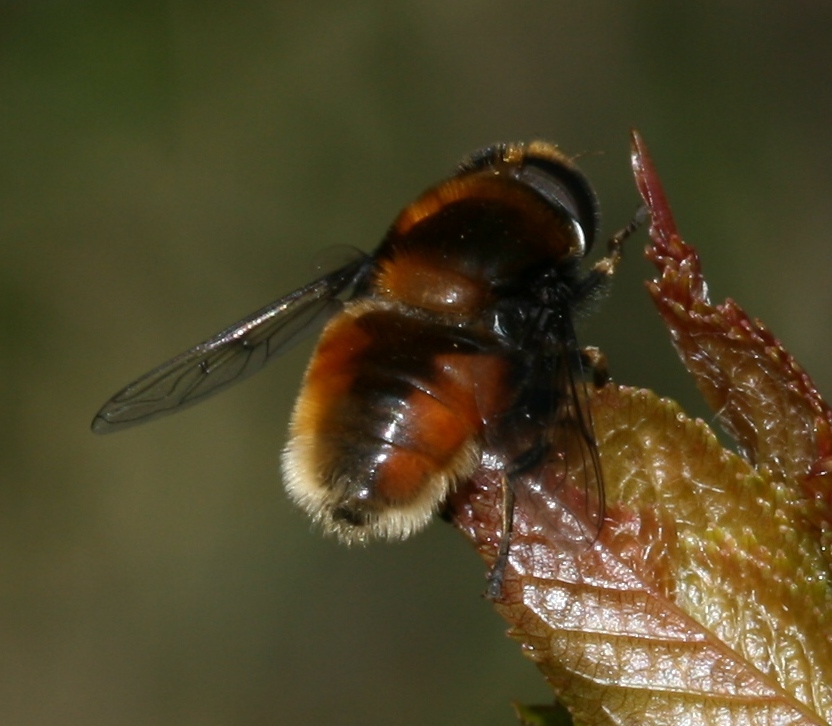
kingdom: Animalia
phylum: Arthropoda
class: Insecta
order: Diptera
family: Syrphidae
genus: Eristalis
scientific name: Eristalis intricaria
